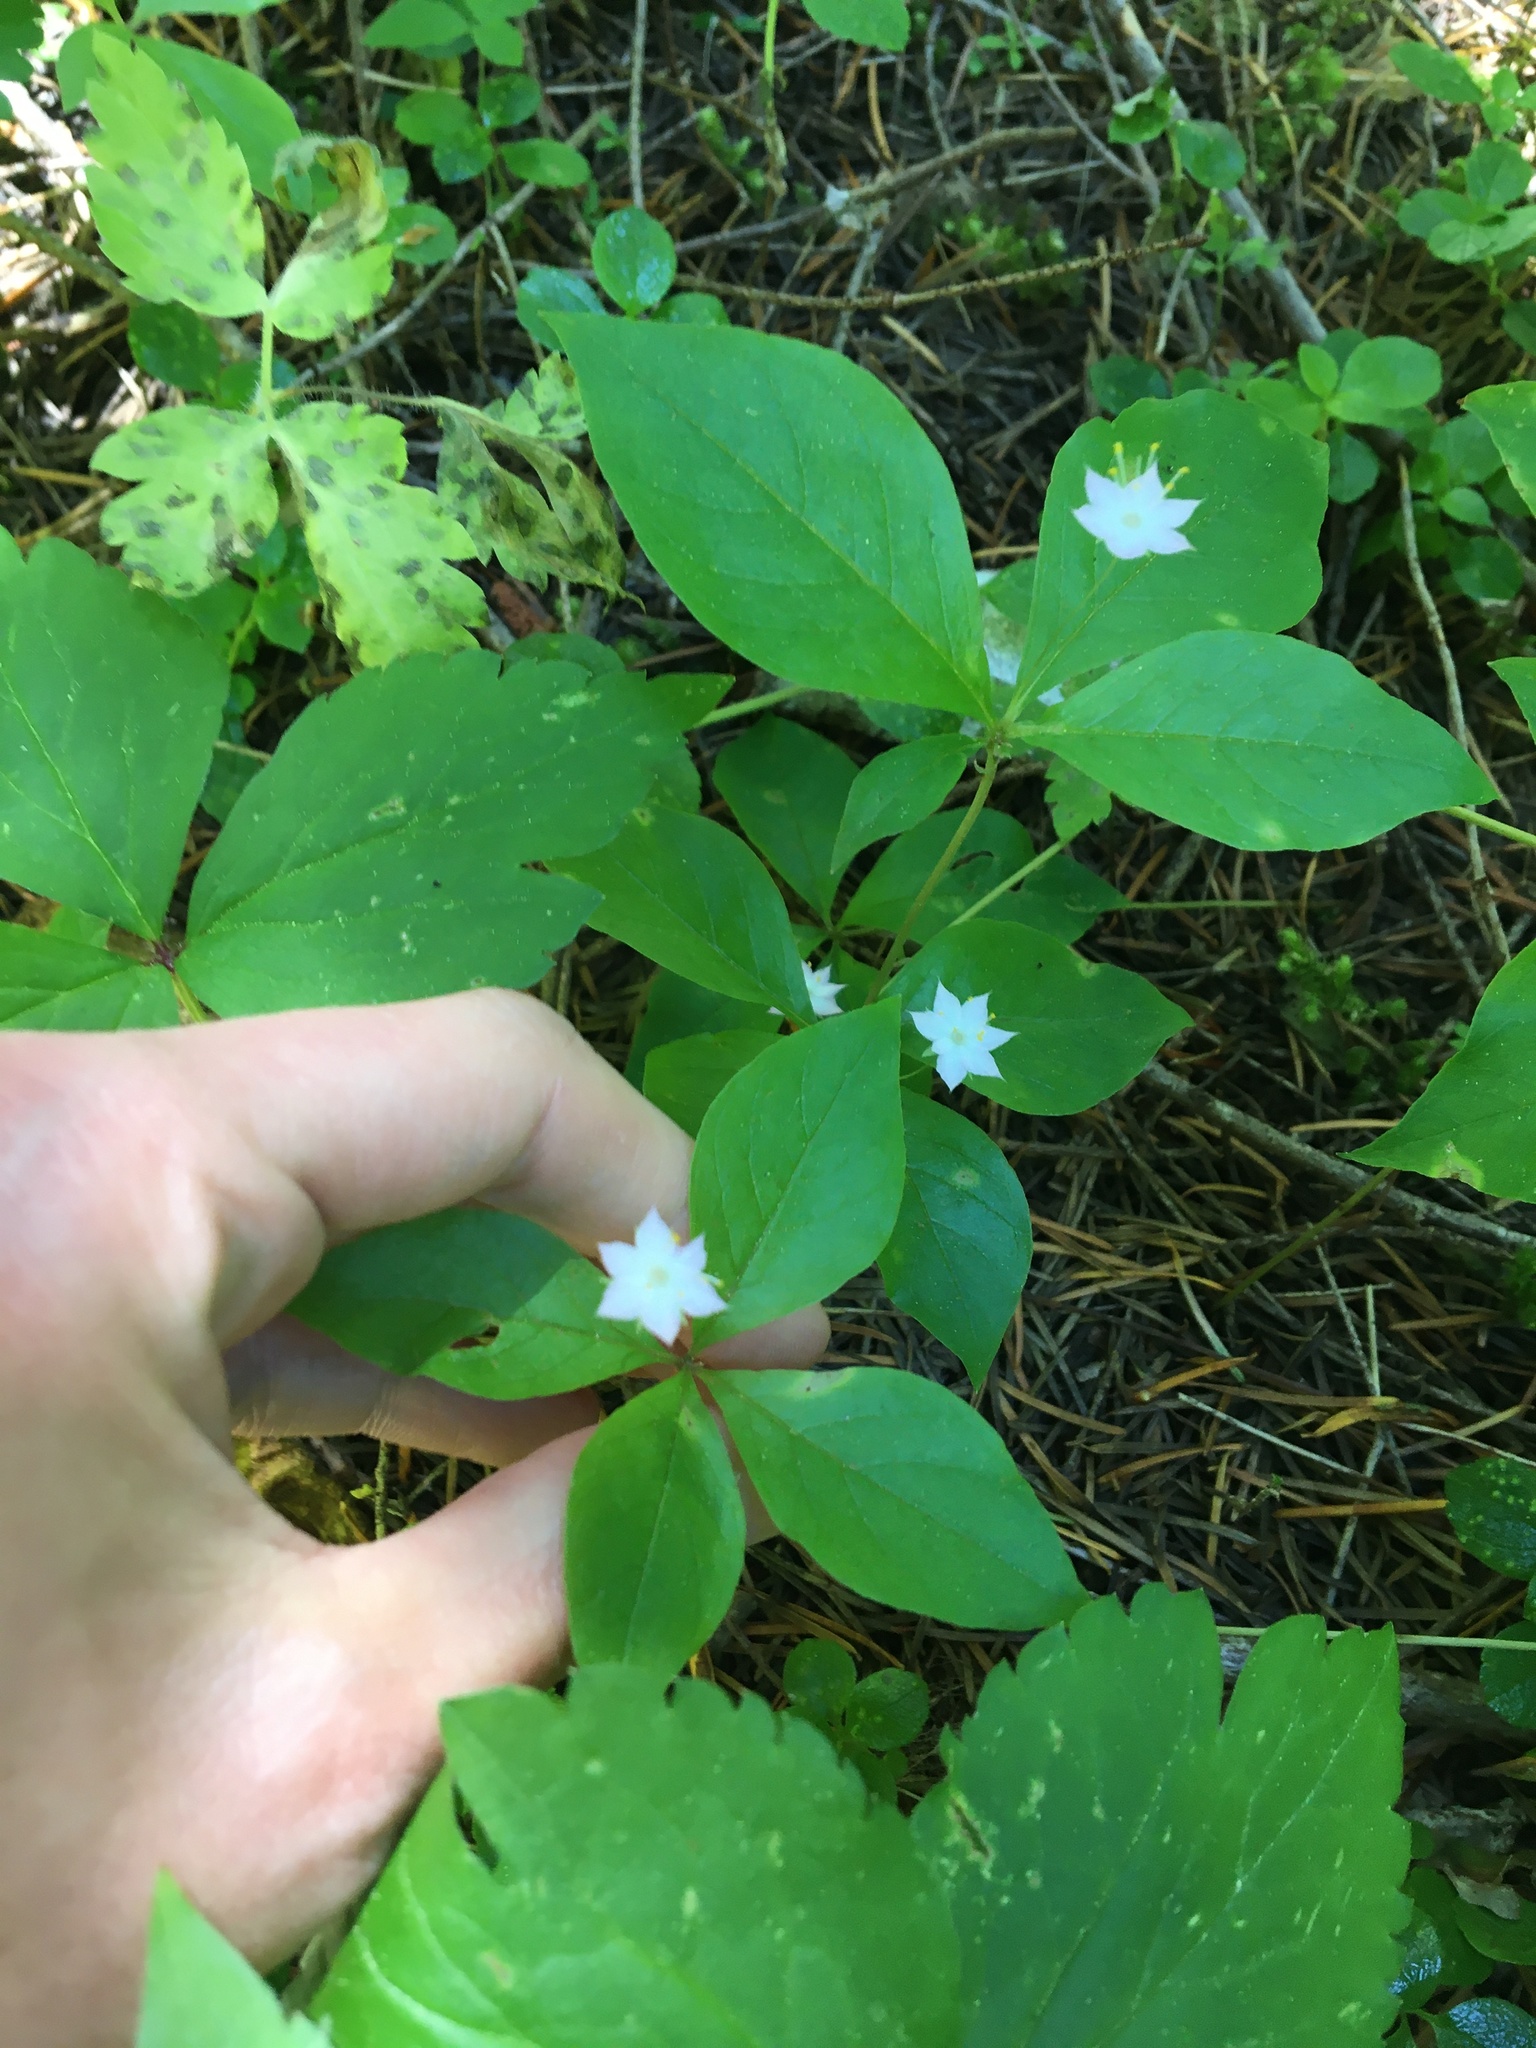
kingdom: Plantae
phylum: Tracheophyta
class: Magnoliopsida
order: Ericales
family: Primulaceae
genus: Lysimachia
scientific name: Lysimachia latifolia
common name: Pacific starflower
